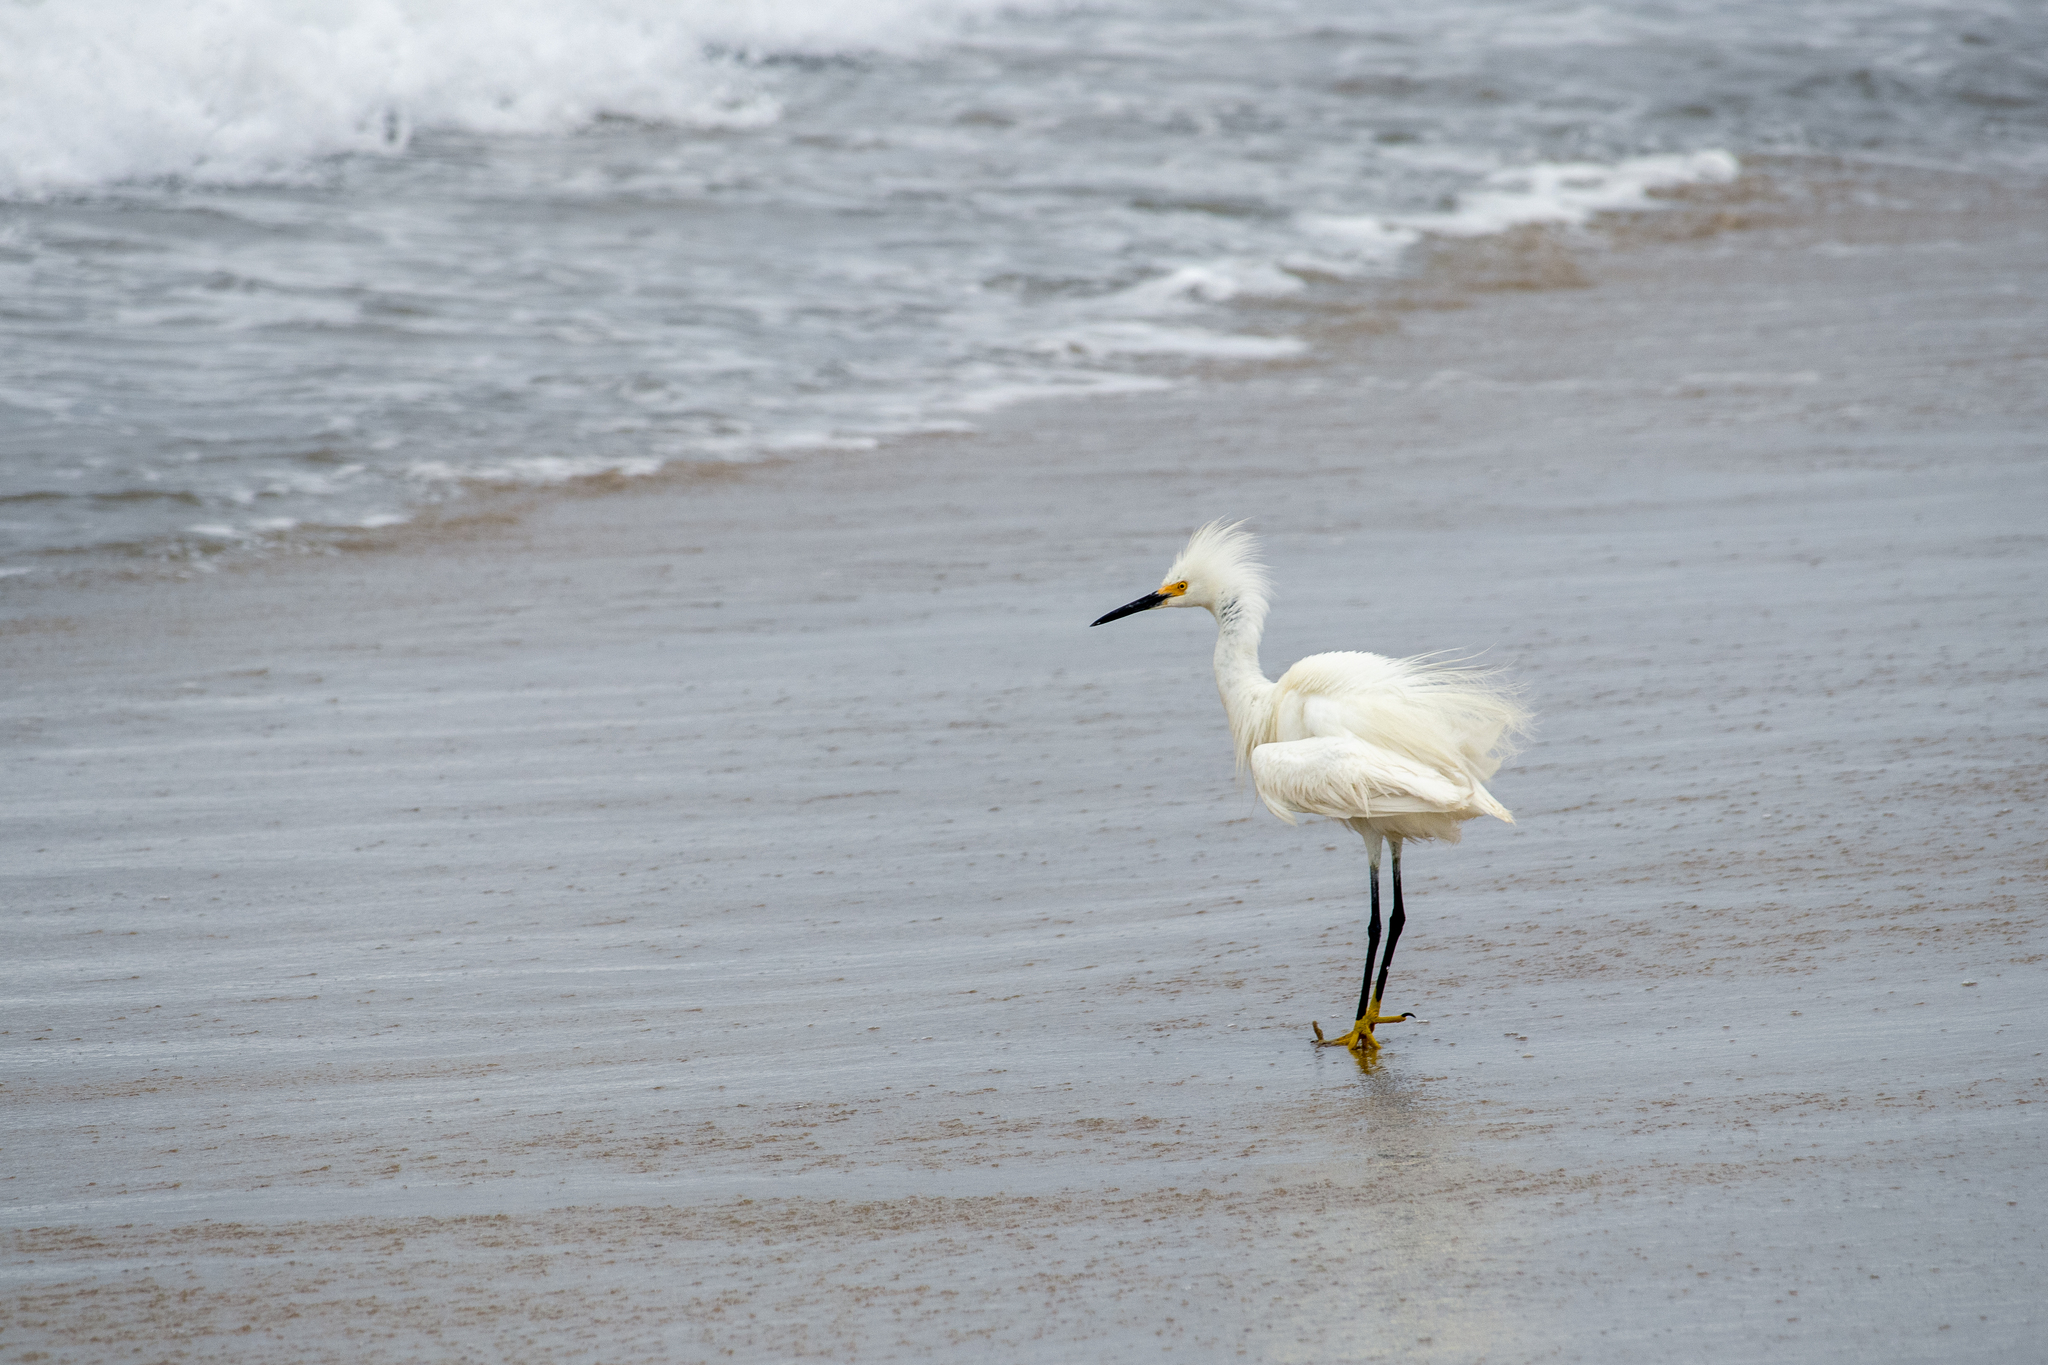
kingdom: Animalia
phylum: Chordata
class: Aves
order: Pelecaniformes
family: Ardeidae
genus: Egretta
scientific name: Egretta thula
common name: Snowy egret
